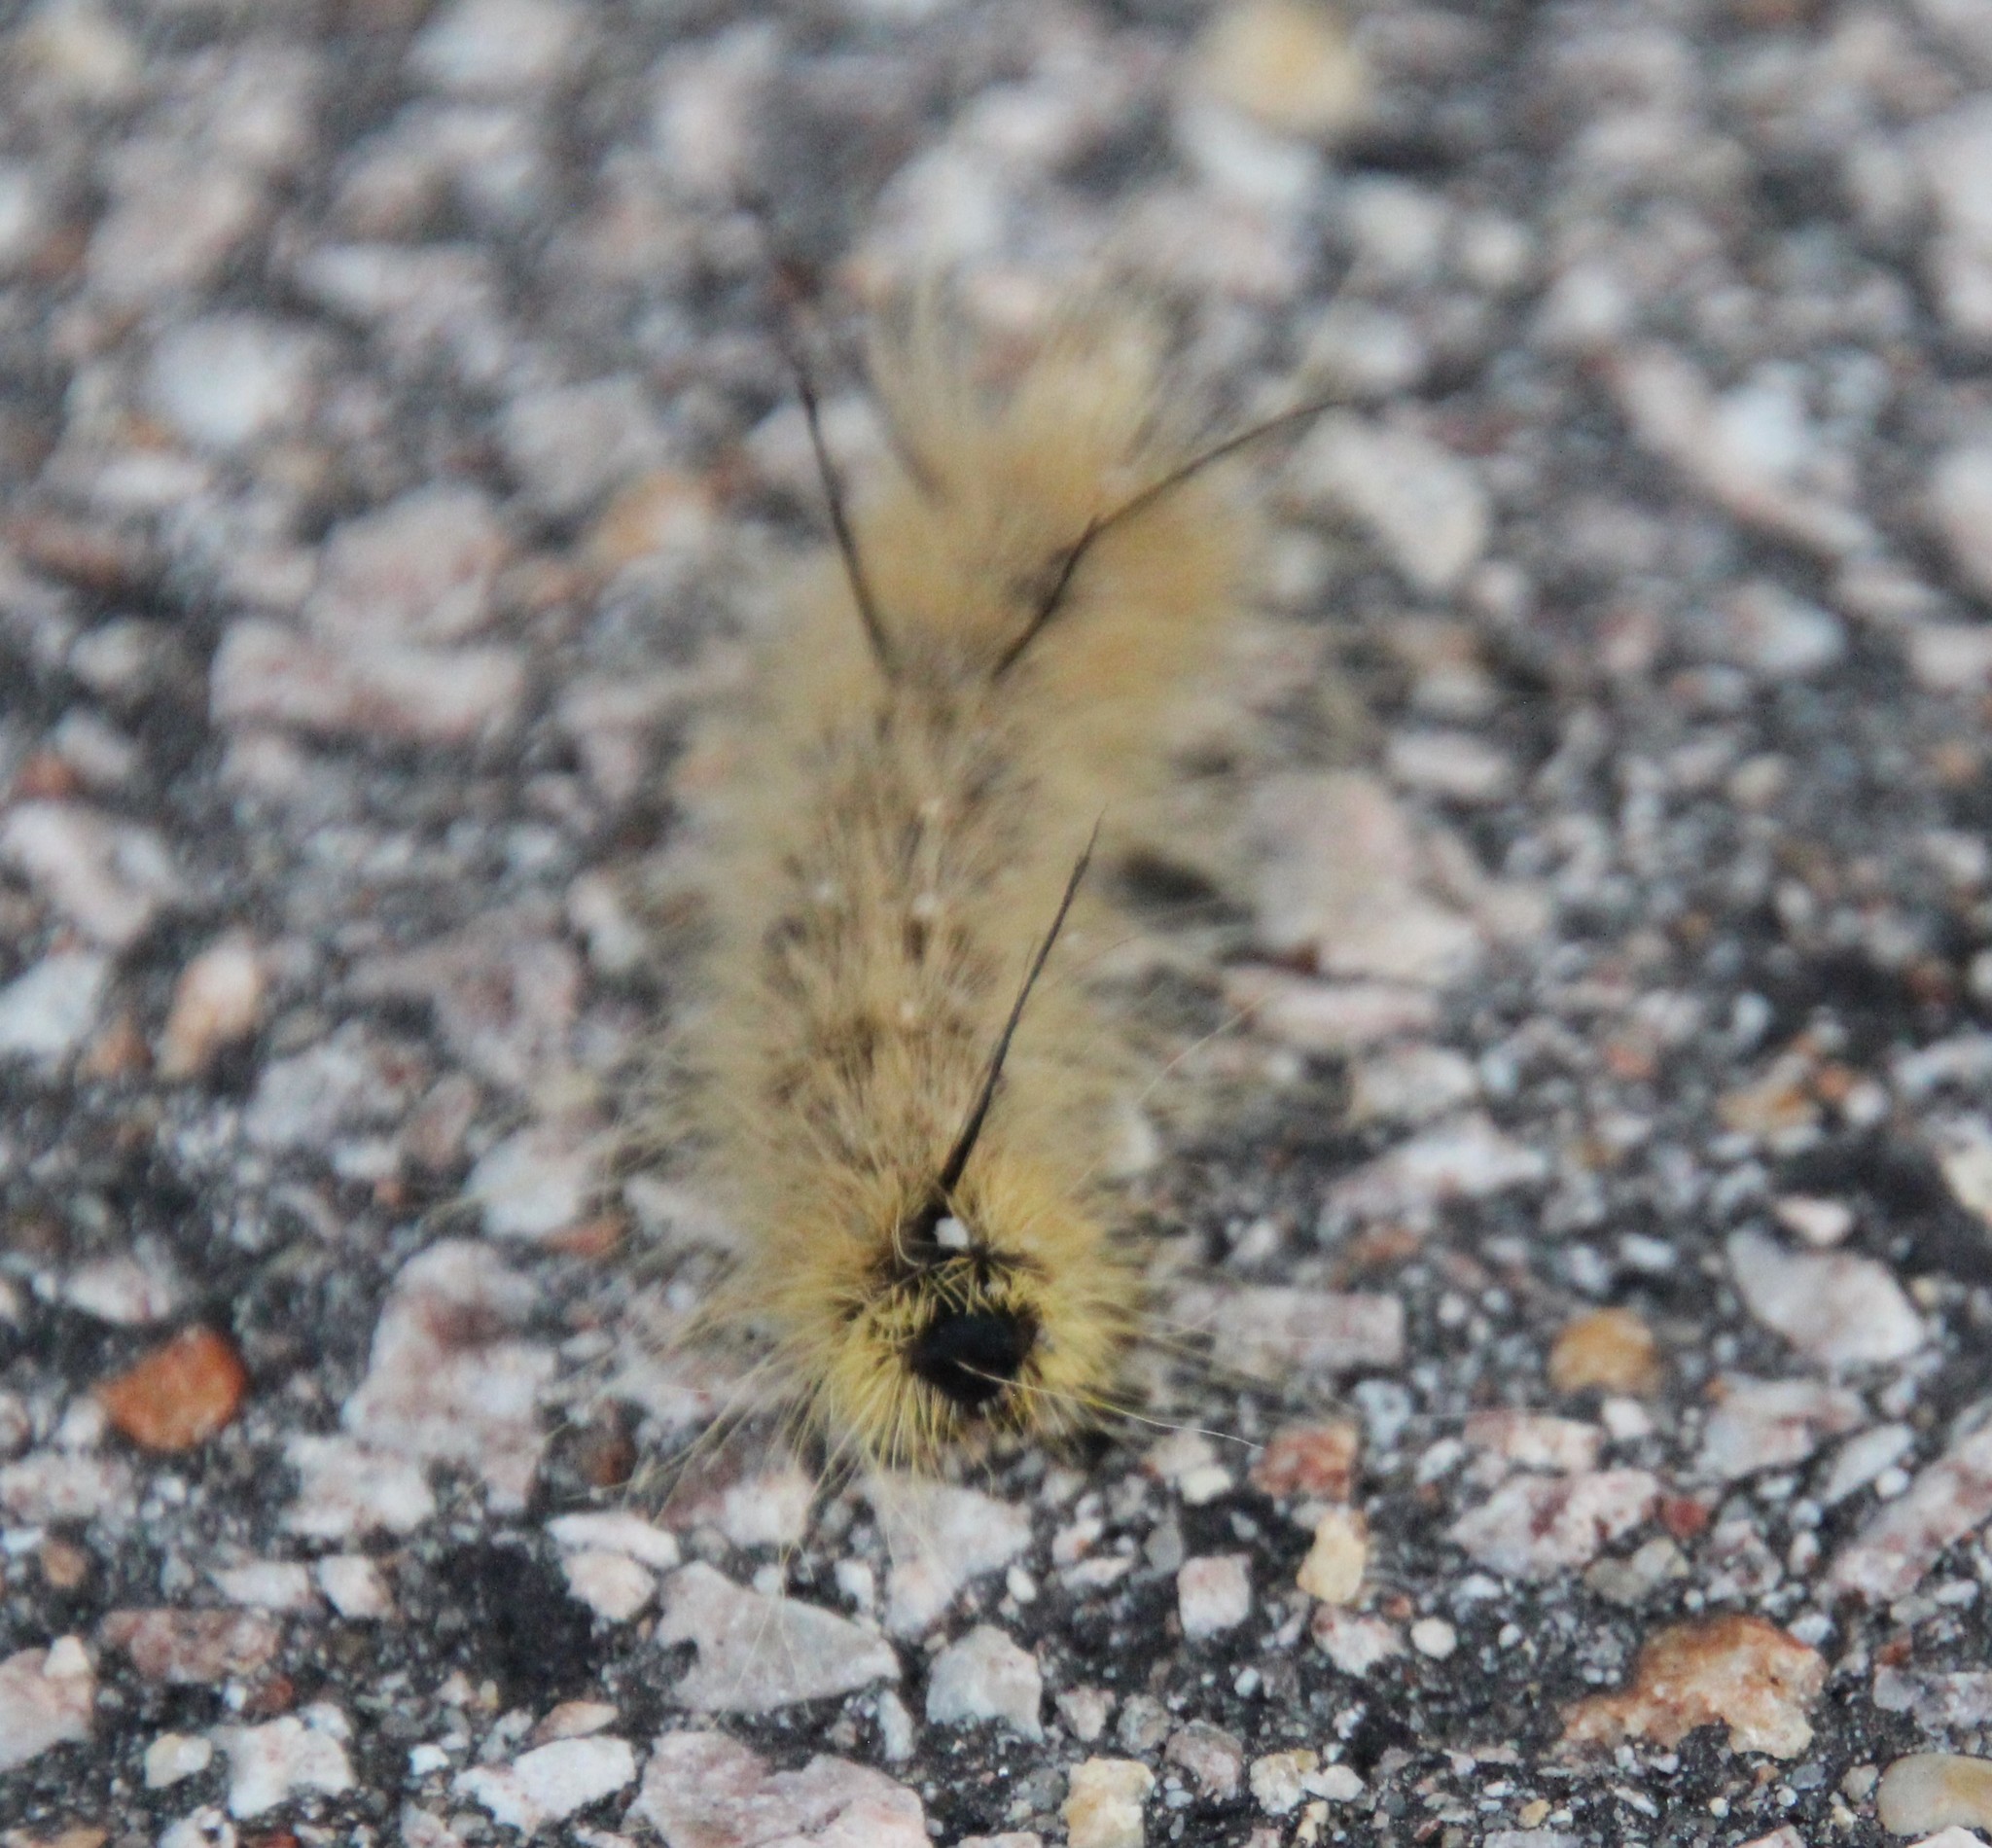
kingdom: Animalia
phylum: Arthropoda
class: Insecta
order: Lepidoptera
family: Noctuidae
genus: Acronicta
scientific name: Acronicta americana
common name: American dagger
